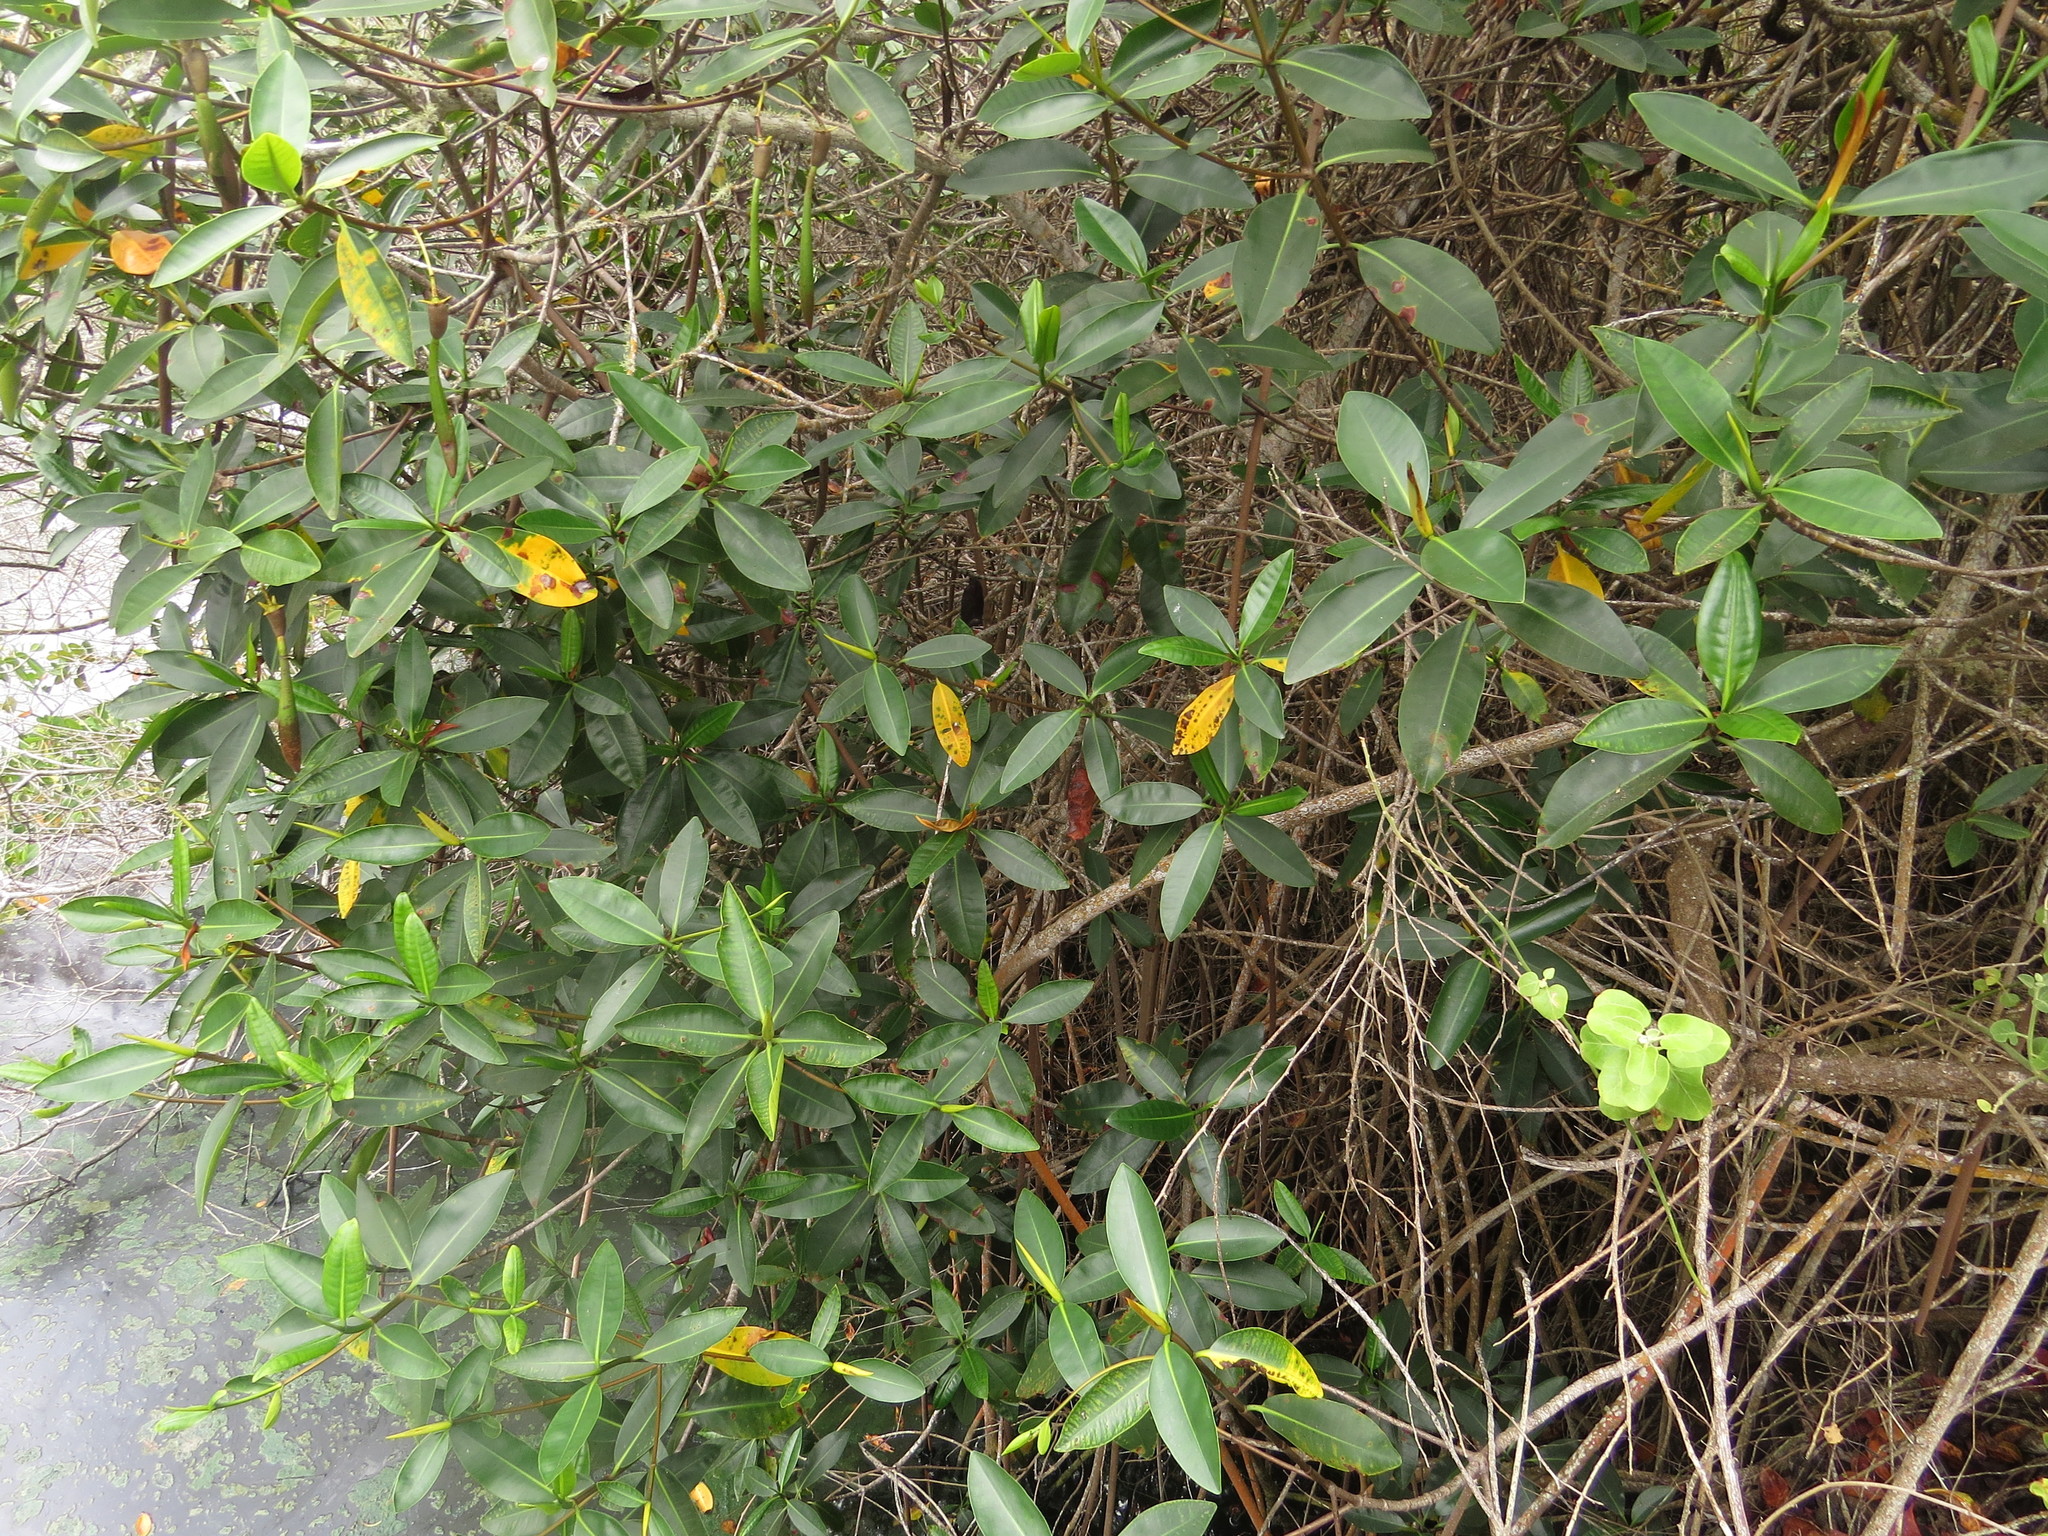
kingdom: Plantae
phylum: Tracheophyta
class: Magnoliopsida
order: Malpighiales
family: Rhizophoraceae
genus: Rhizophora
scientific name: Rhizophora mangle
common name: Red mangrove
